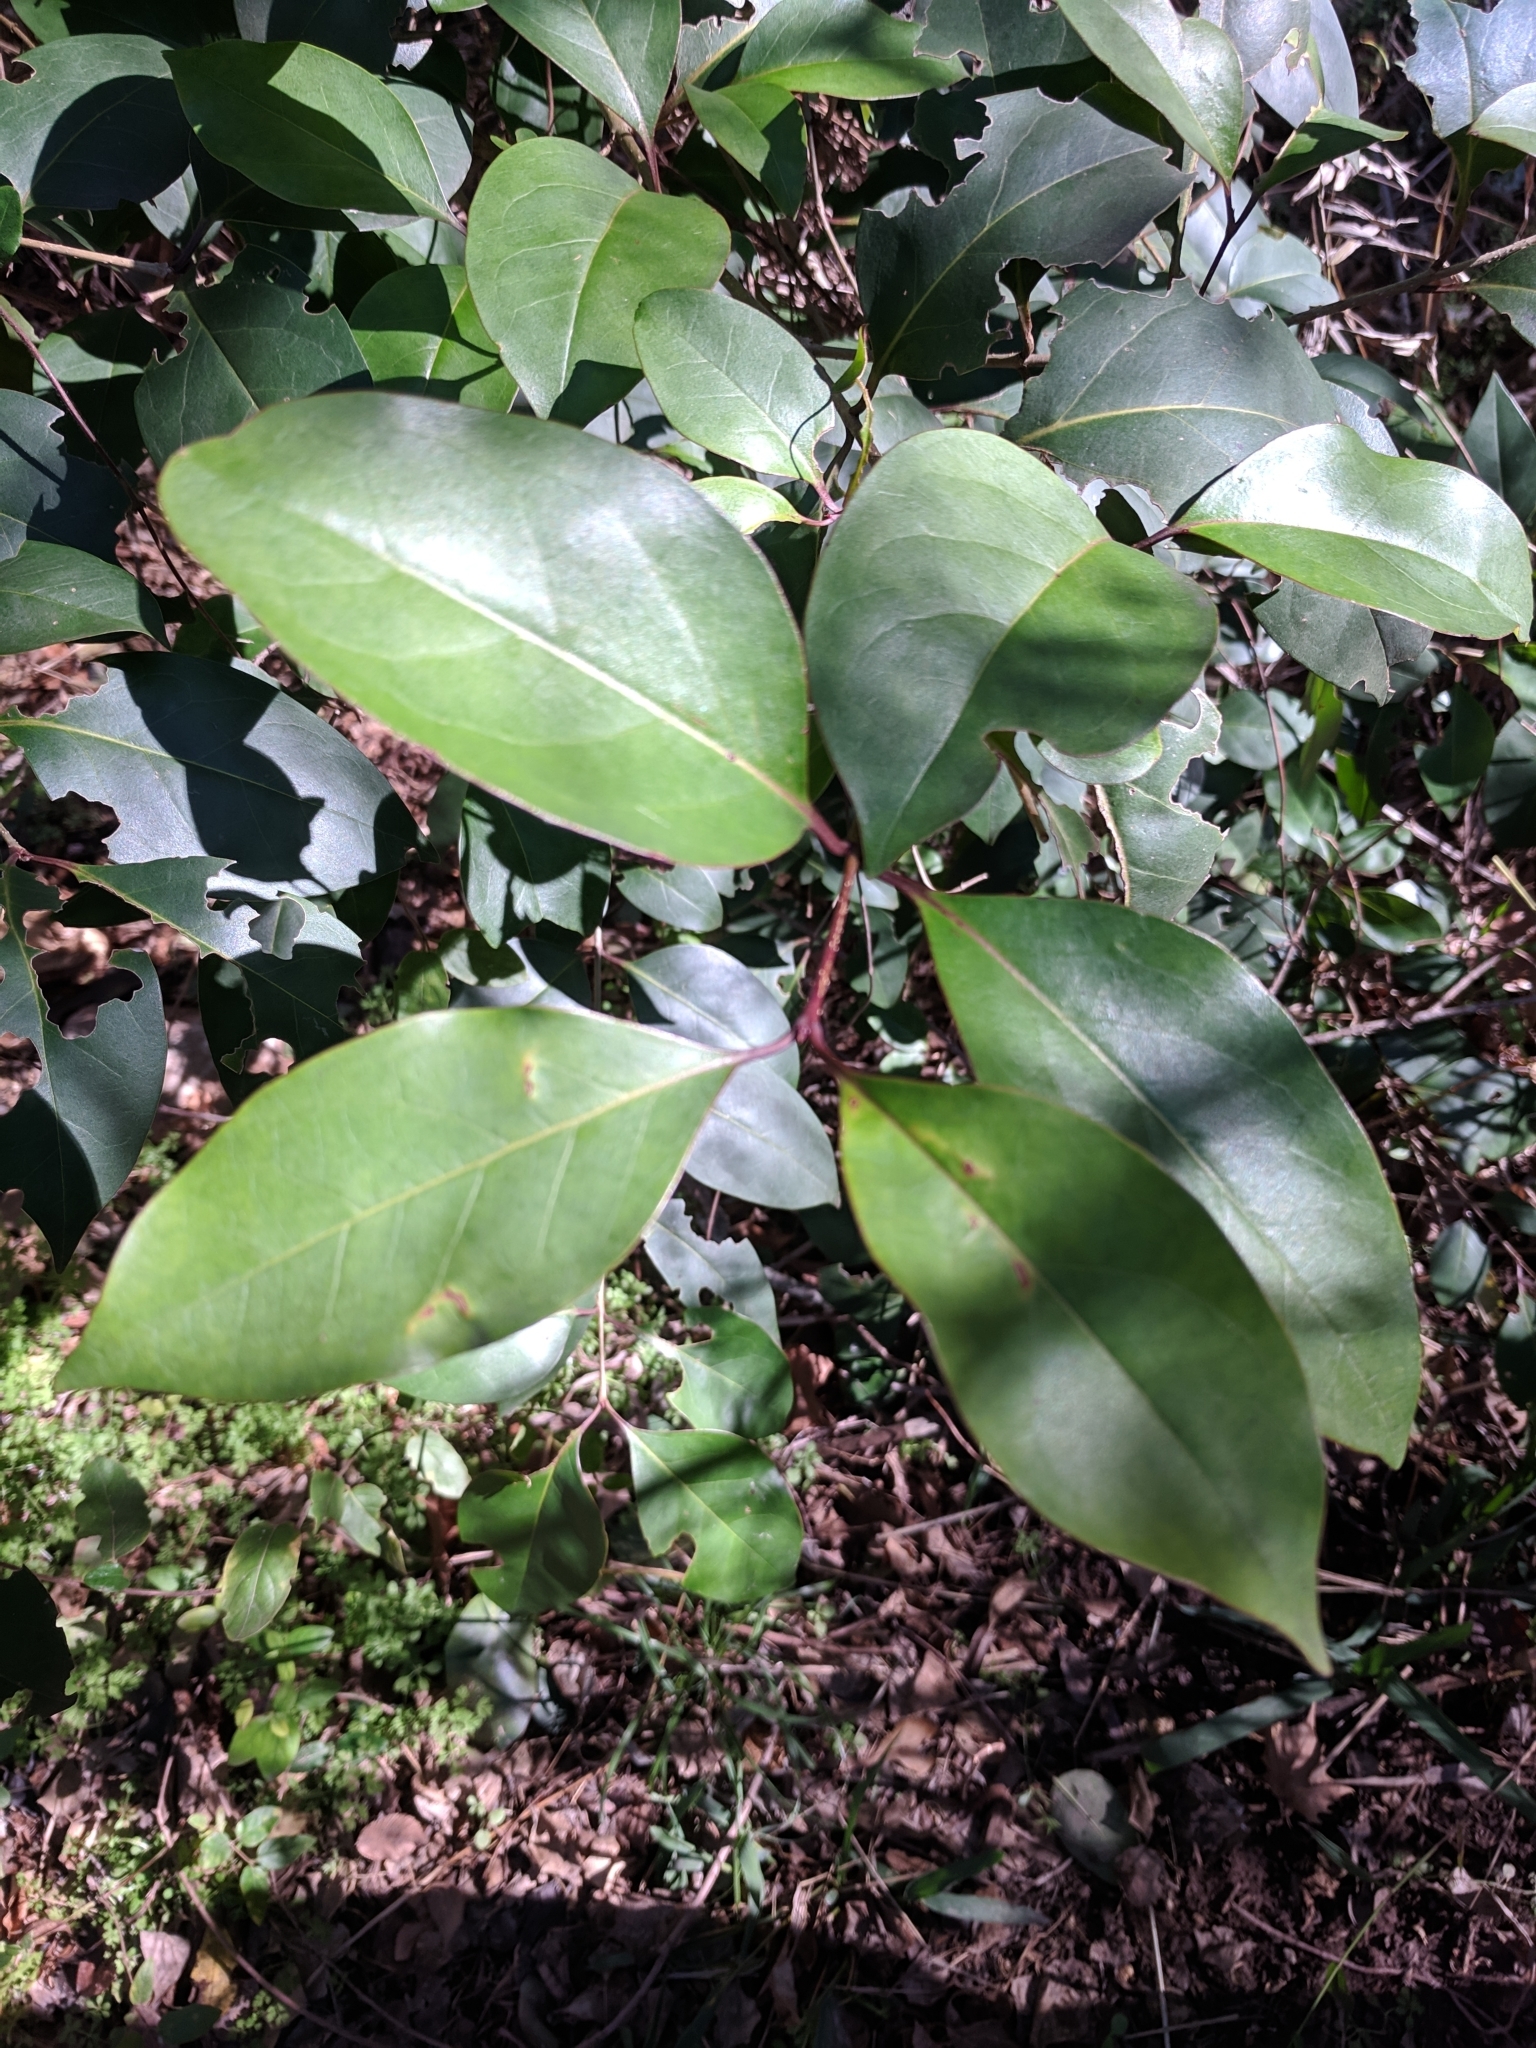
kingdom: Plantae
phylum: Tracheophyta
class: Magnoliopsida
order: Lamiales
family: Oleaceae
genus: Ligustrum
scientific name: Ligustrum lucidum
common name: Glossy privet
